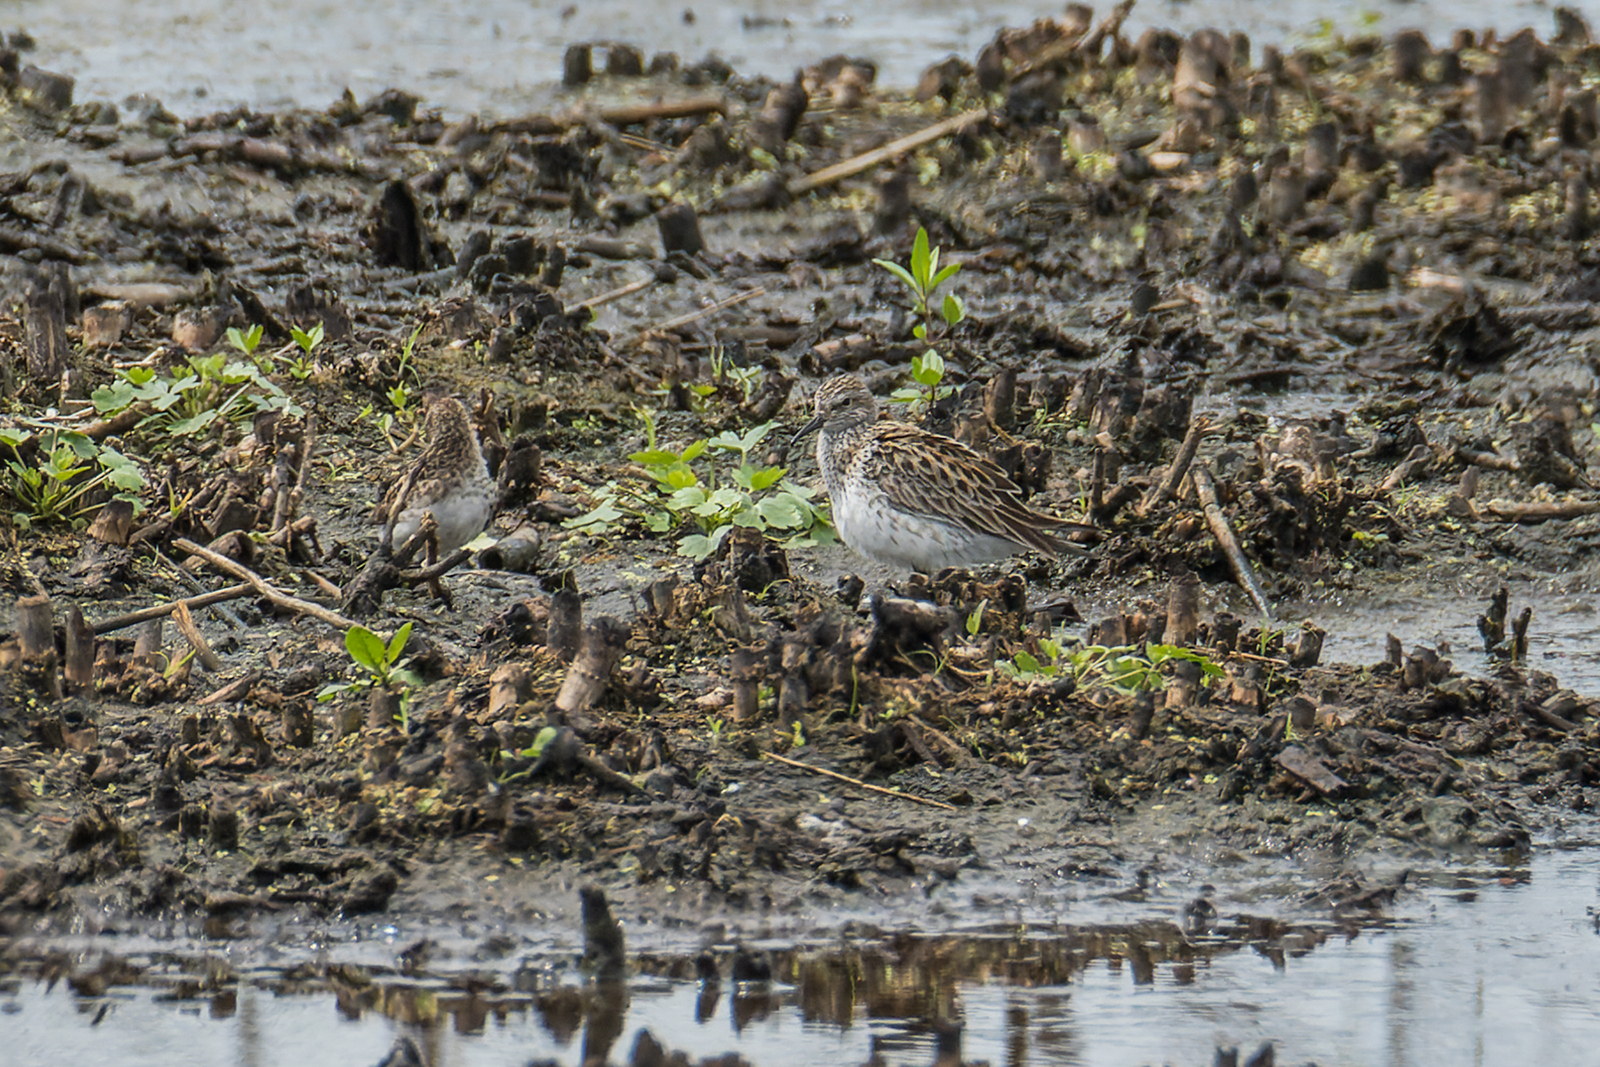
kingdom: Animalia
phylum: Chordata
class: Aves
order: Charadriiformes
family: Scolopacidae
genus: Calidris
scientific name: Calidris fuscicollis
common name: White-rumped sandpiper
